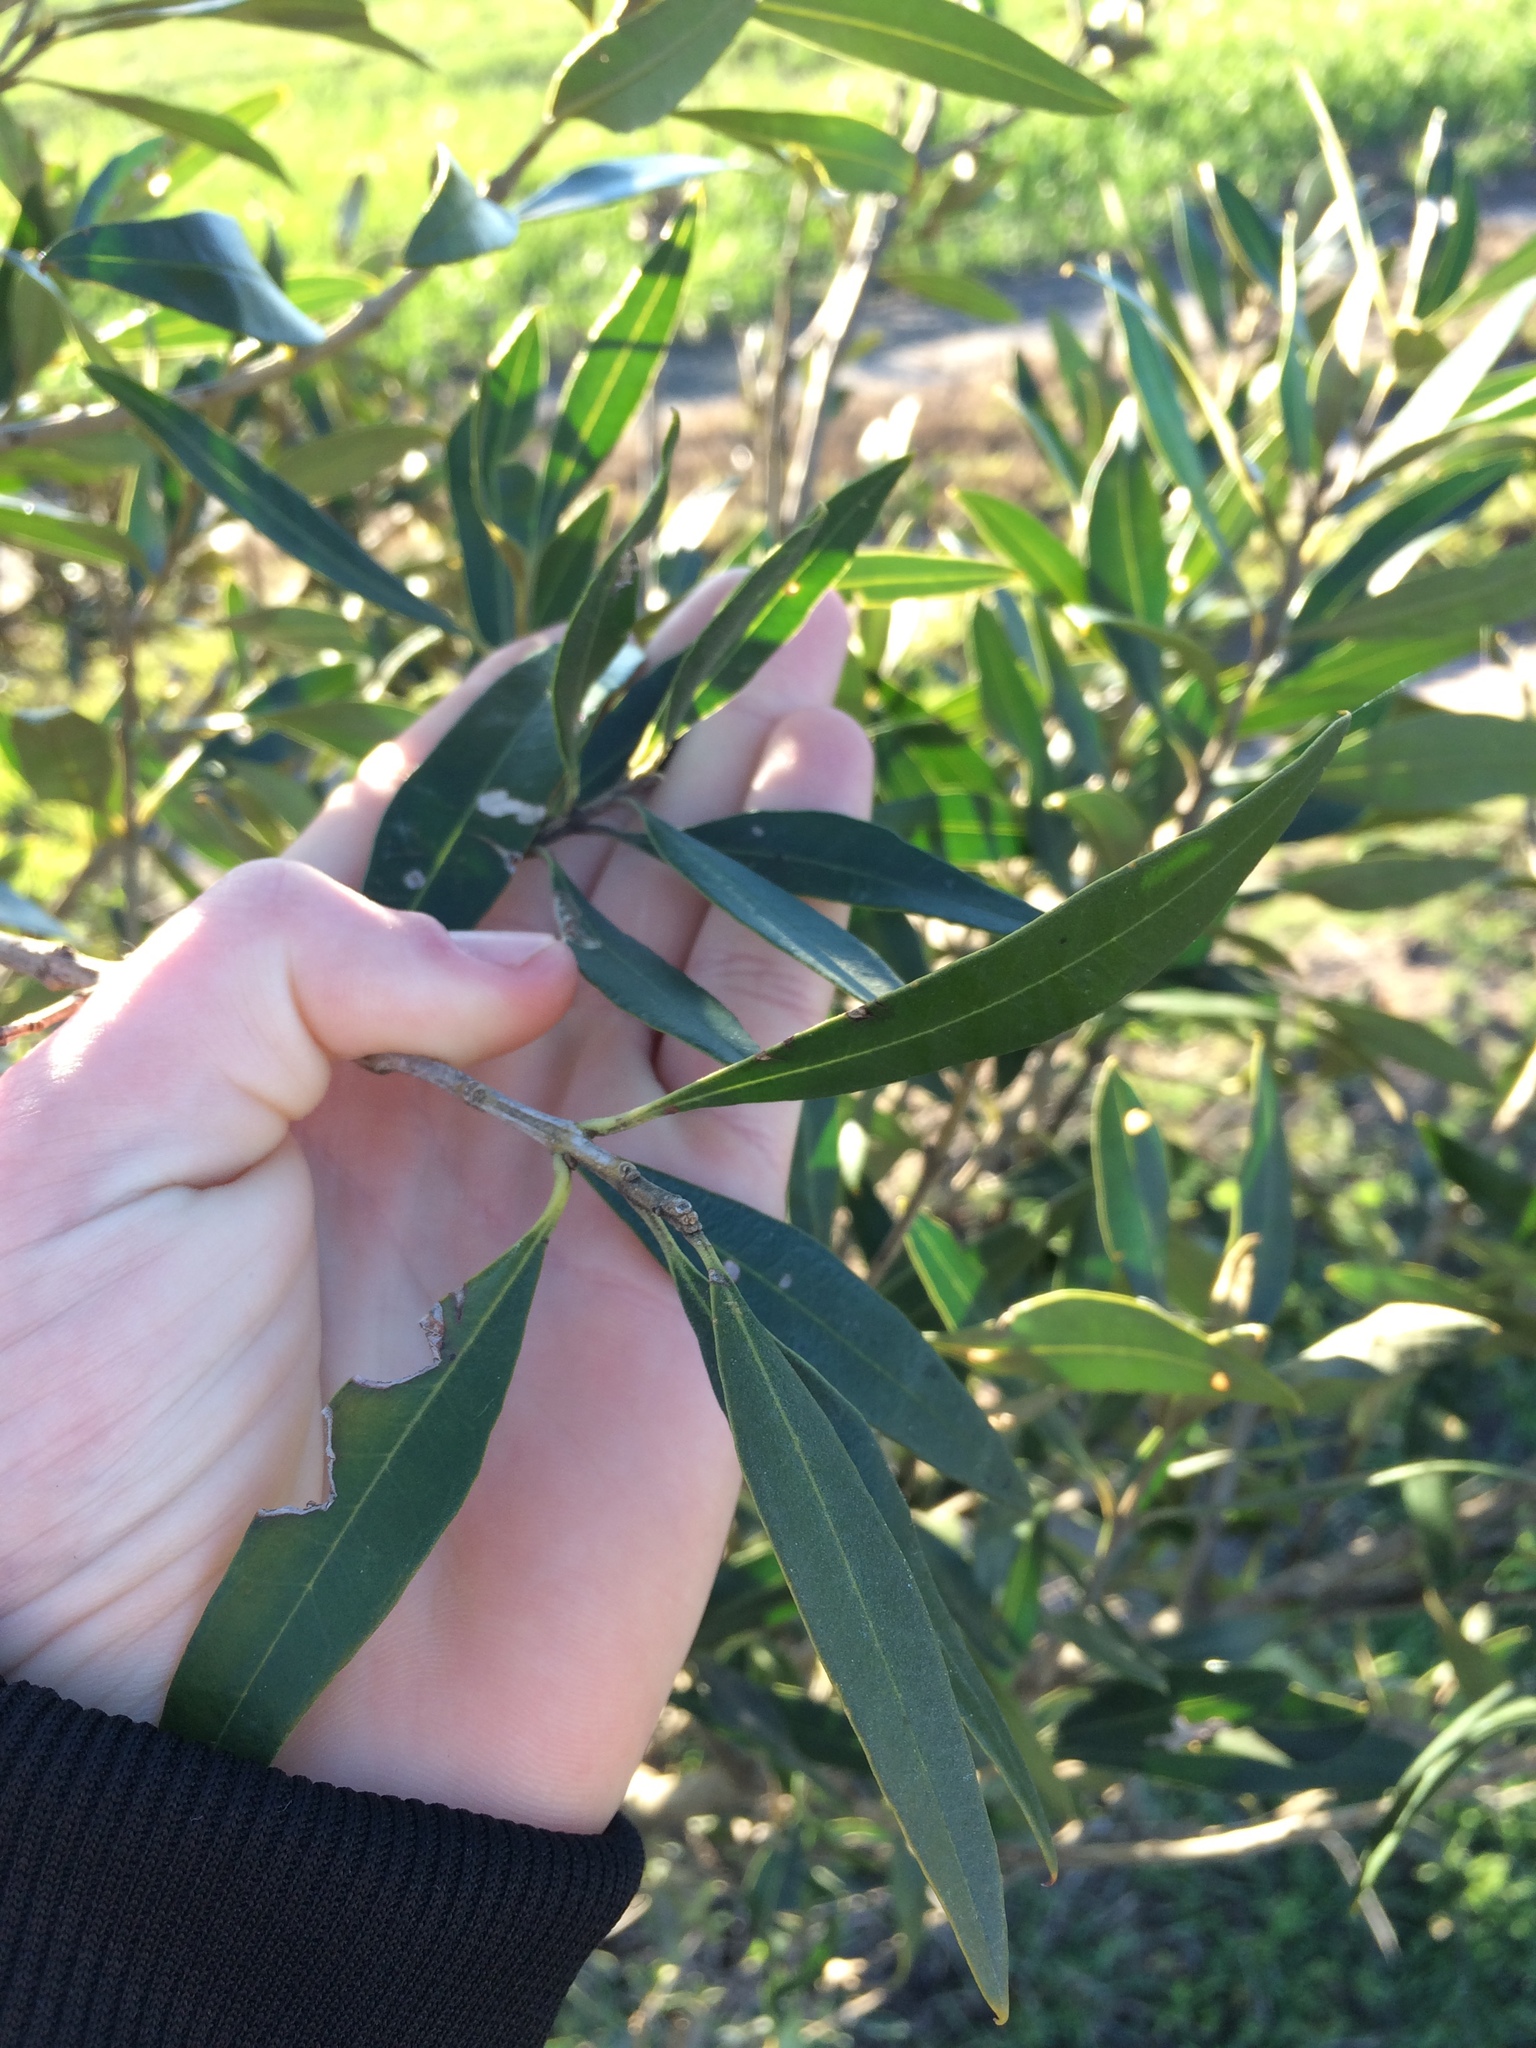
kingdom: Plantae
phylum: Tracheophyta
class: Magnoliopsida
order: Lamiales
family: Oleaceae
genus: Olea
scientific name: Olea europaea
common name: Olive
